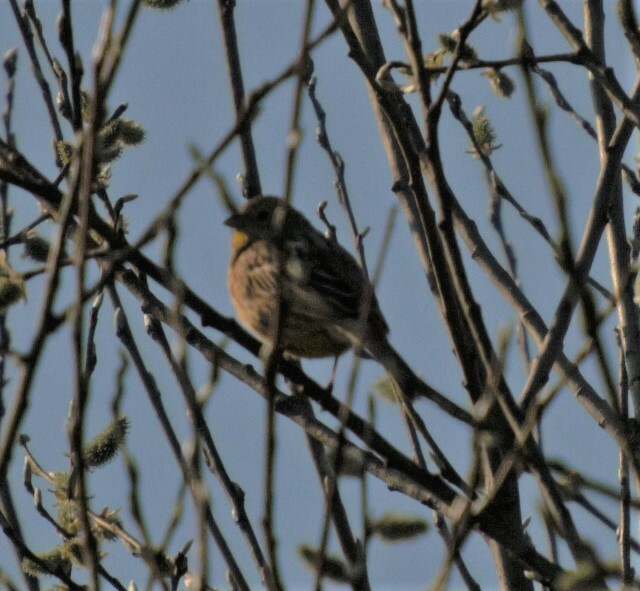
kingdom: Animalia
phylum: Chordata
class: Aves
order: Passeriformes
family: Emberizidae
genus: Emberiza
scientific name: Emberiza citrinella
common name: Yellowhammer
